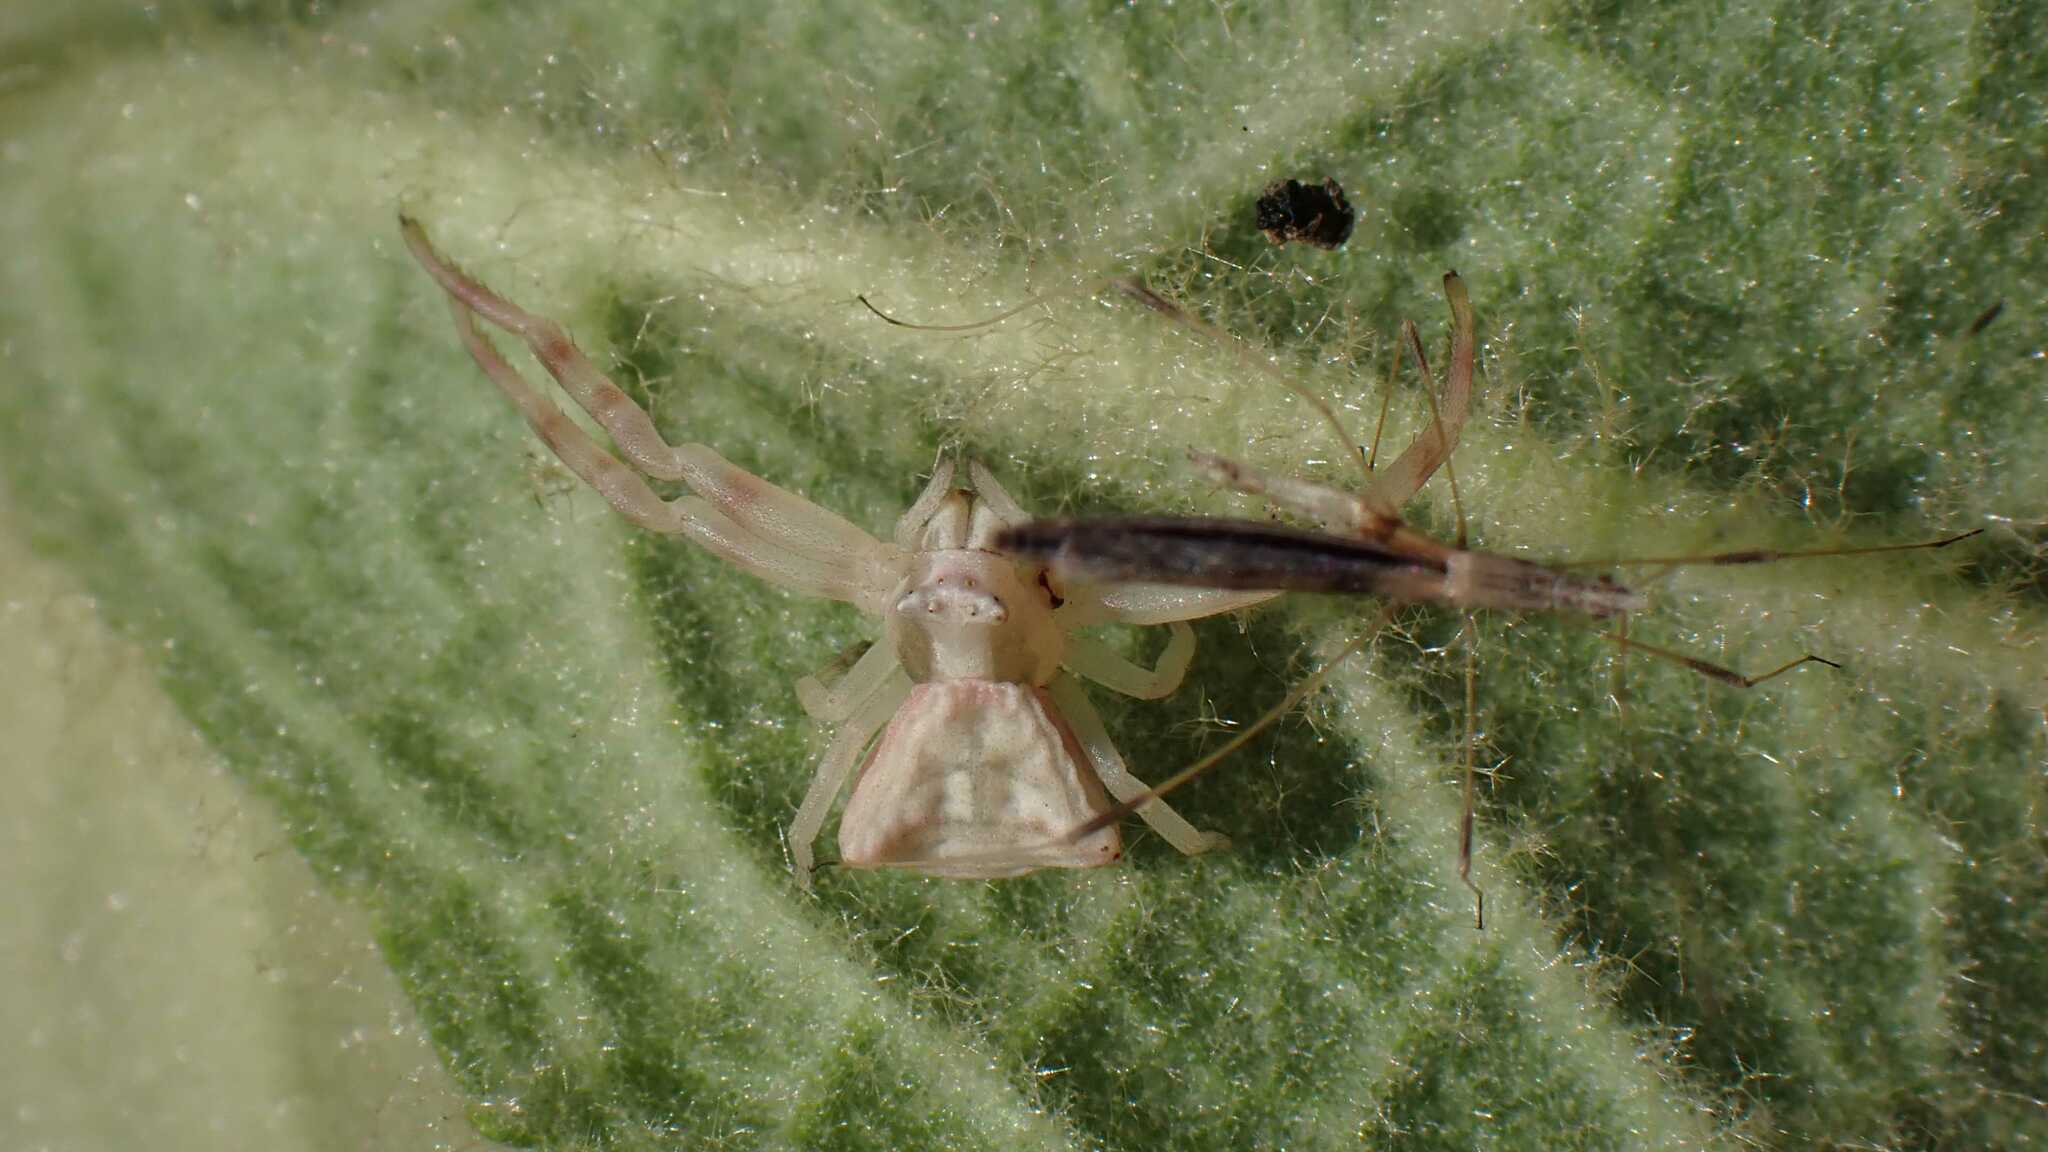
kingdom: Animalia
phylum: Arthropoda
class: Arachnida
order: Araneae
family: Thomisidae
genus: Thomisus
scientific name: Thomisus onustus
